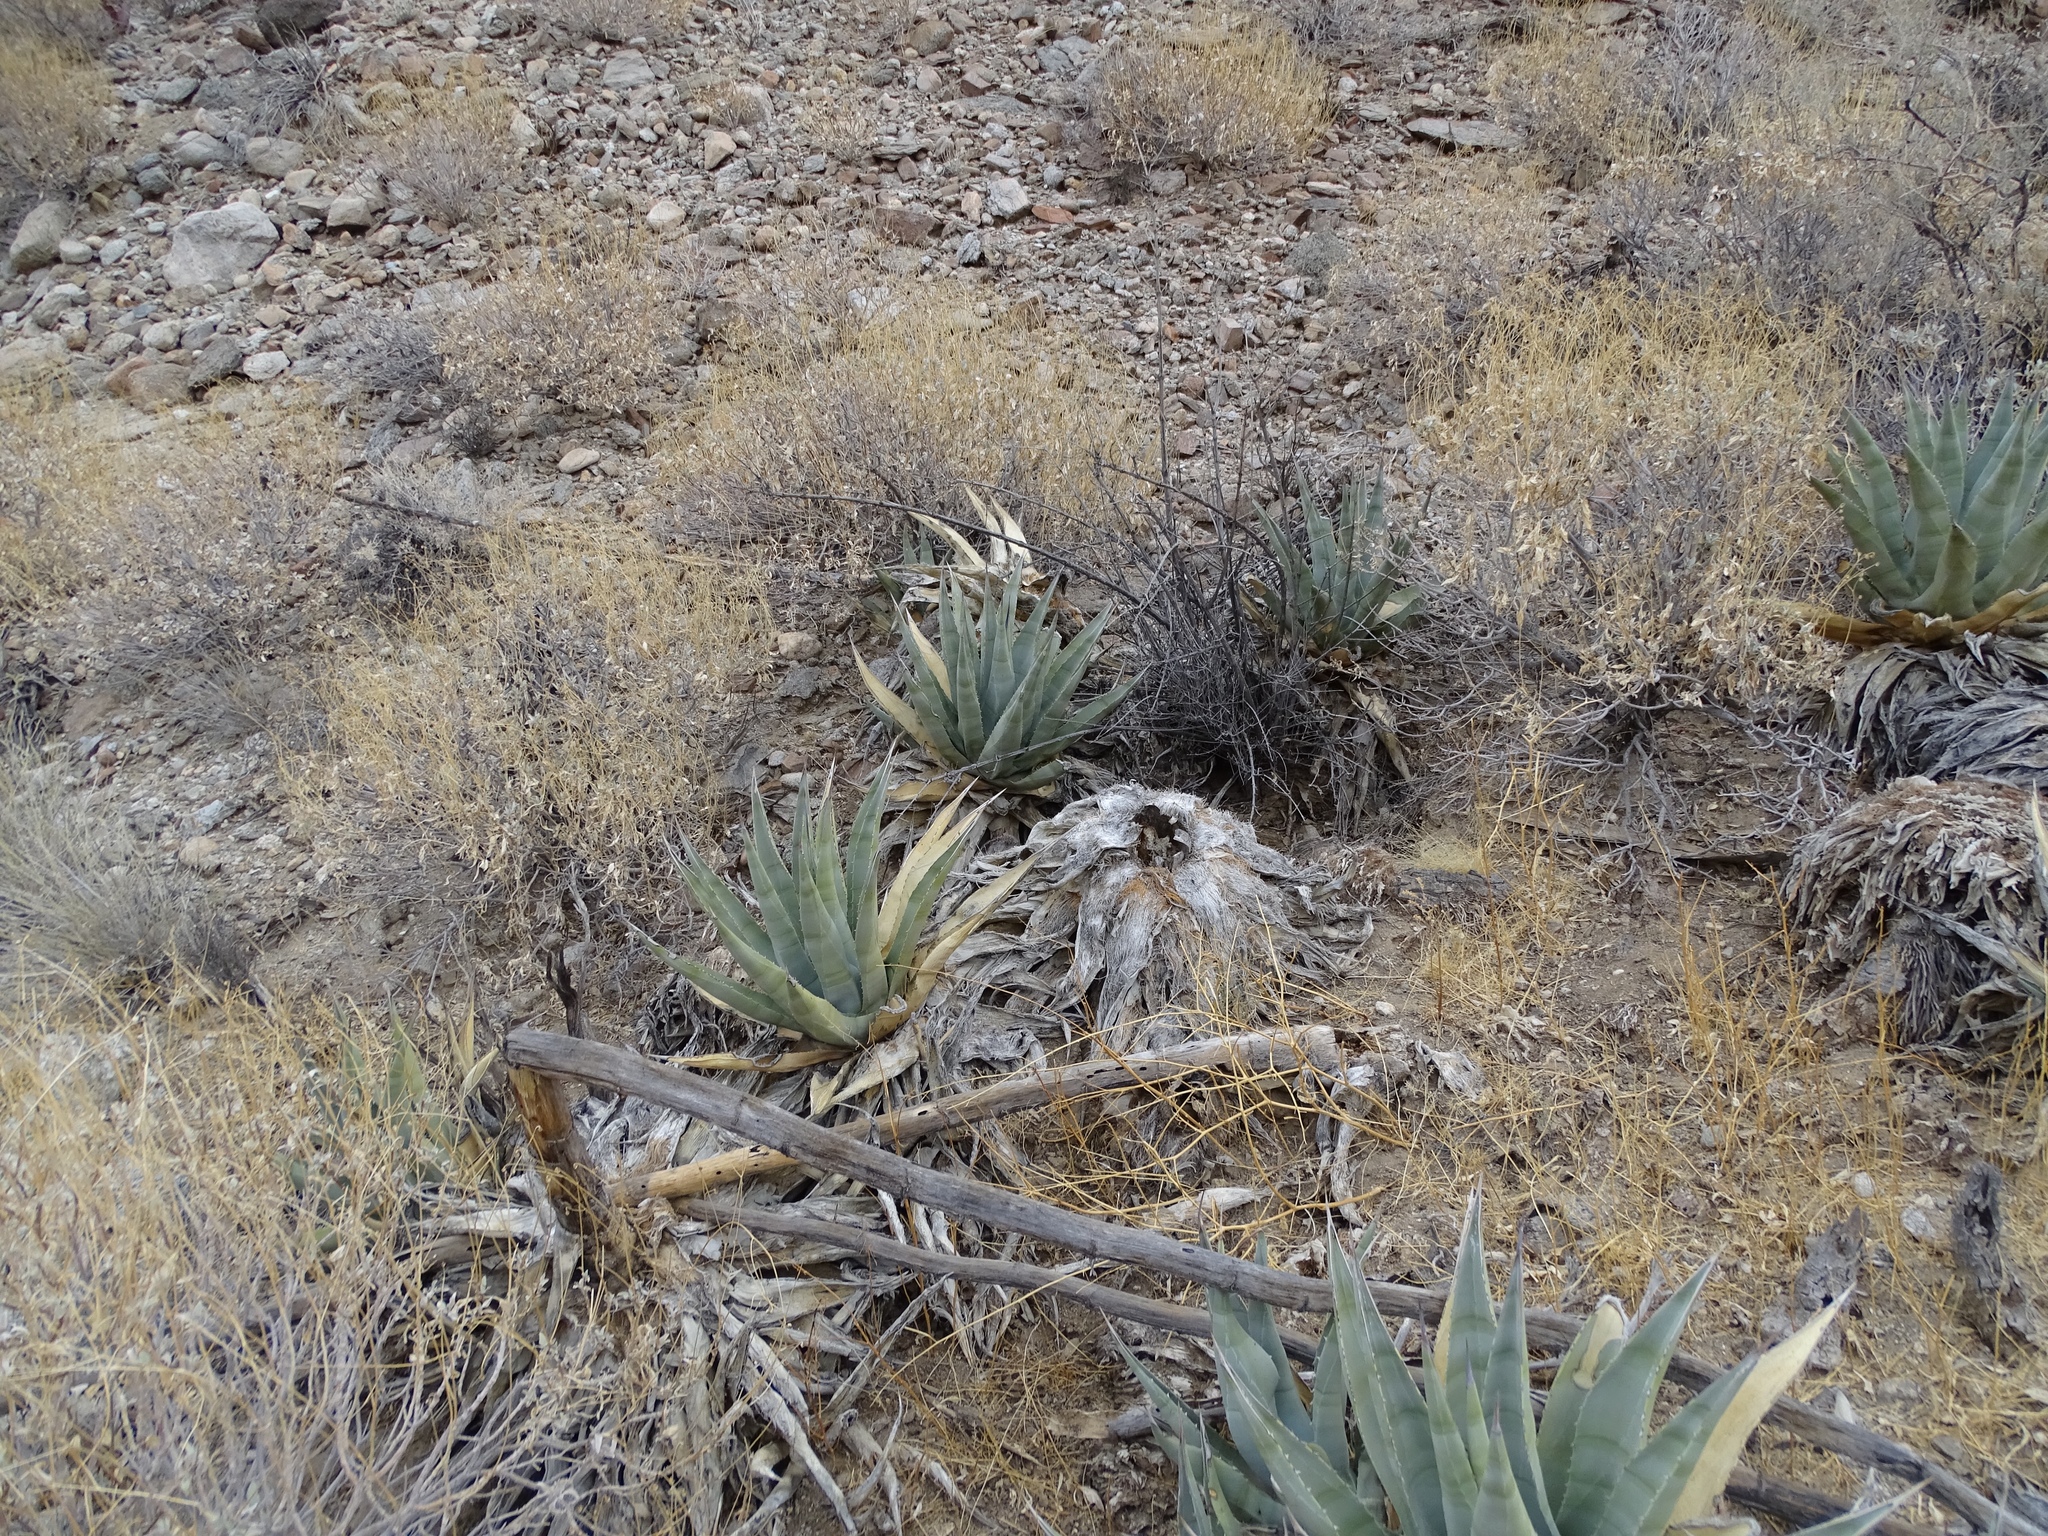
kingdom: Plantae
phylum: Tracheophyta
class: Liliopsida
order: Asparagales
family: Asparagaceae
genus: Agave
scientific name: Agave deserti
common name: Desert agave
